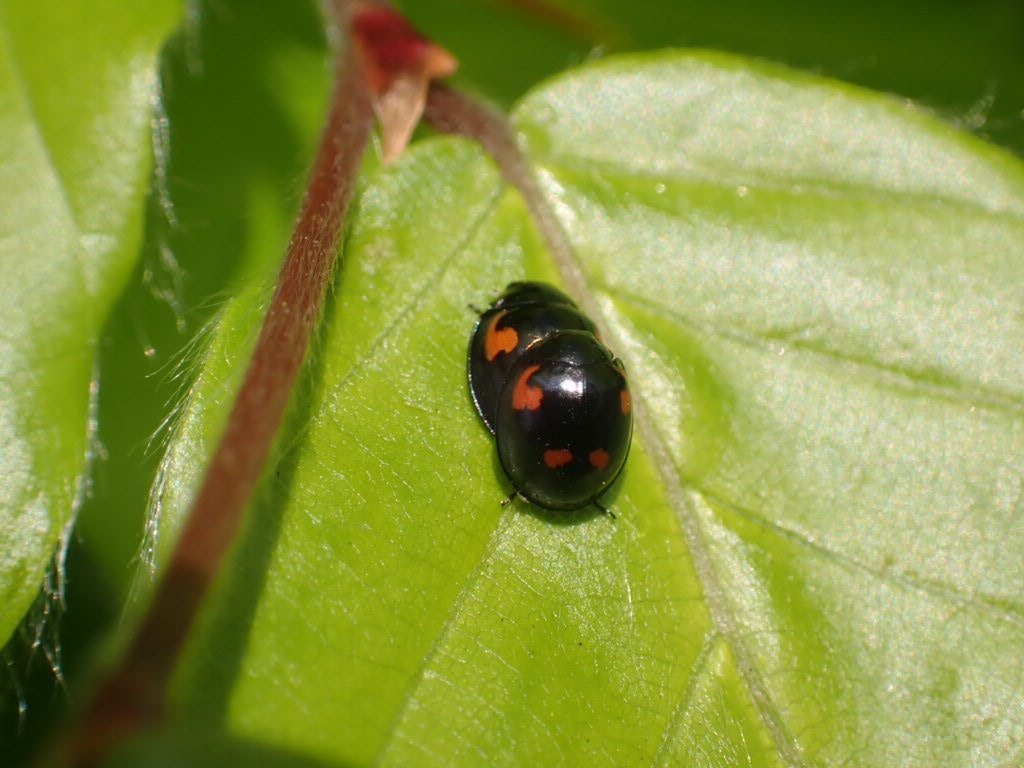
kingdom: Animalia
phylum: Arthropoda
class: Insecta
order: Coleoptera
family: Coccinellidae
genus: Brumus
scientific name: Brumus quadripustulatus
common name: Ladybird beetle
